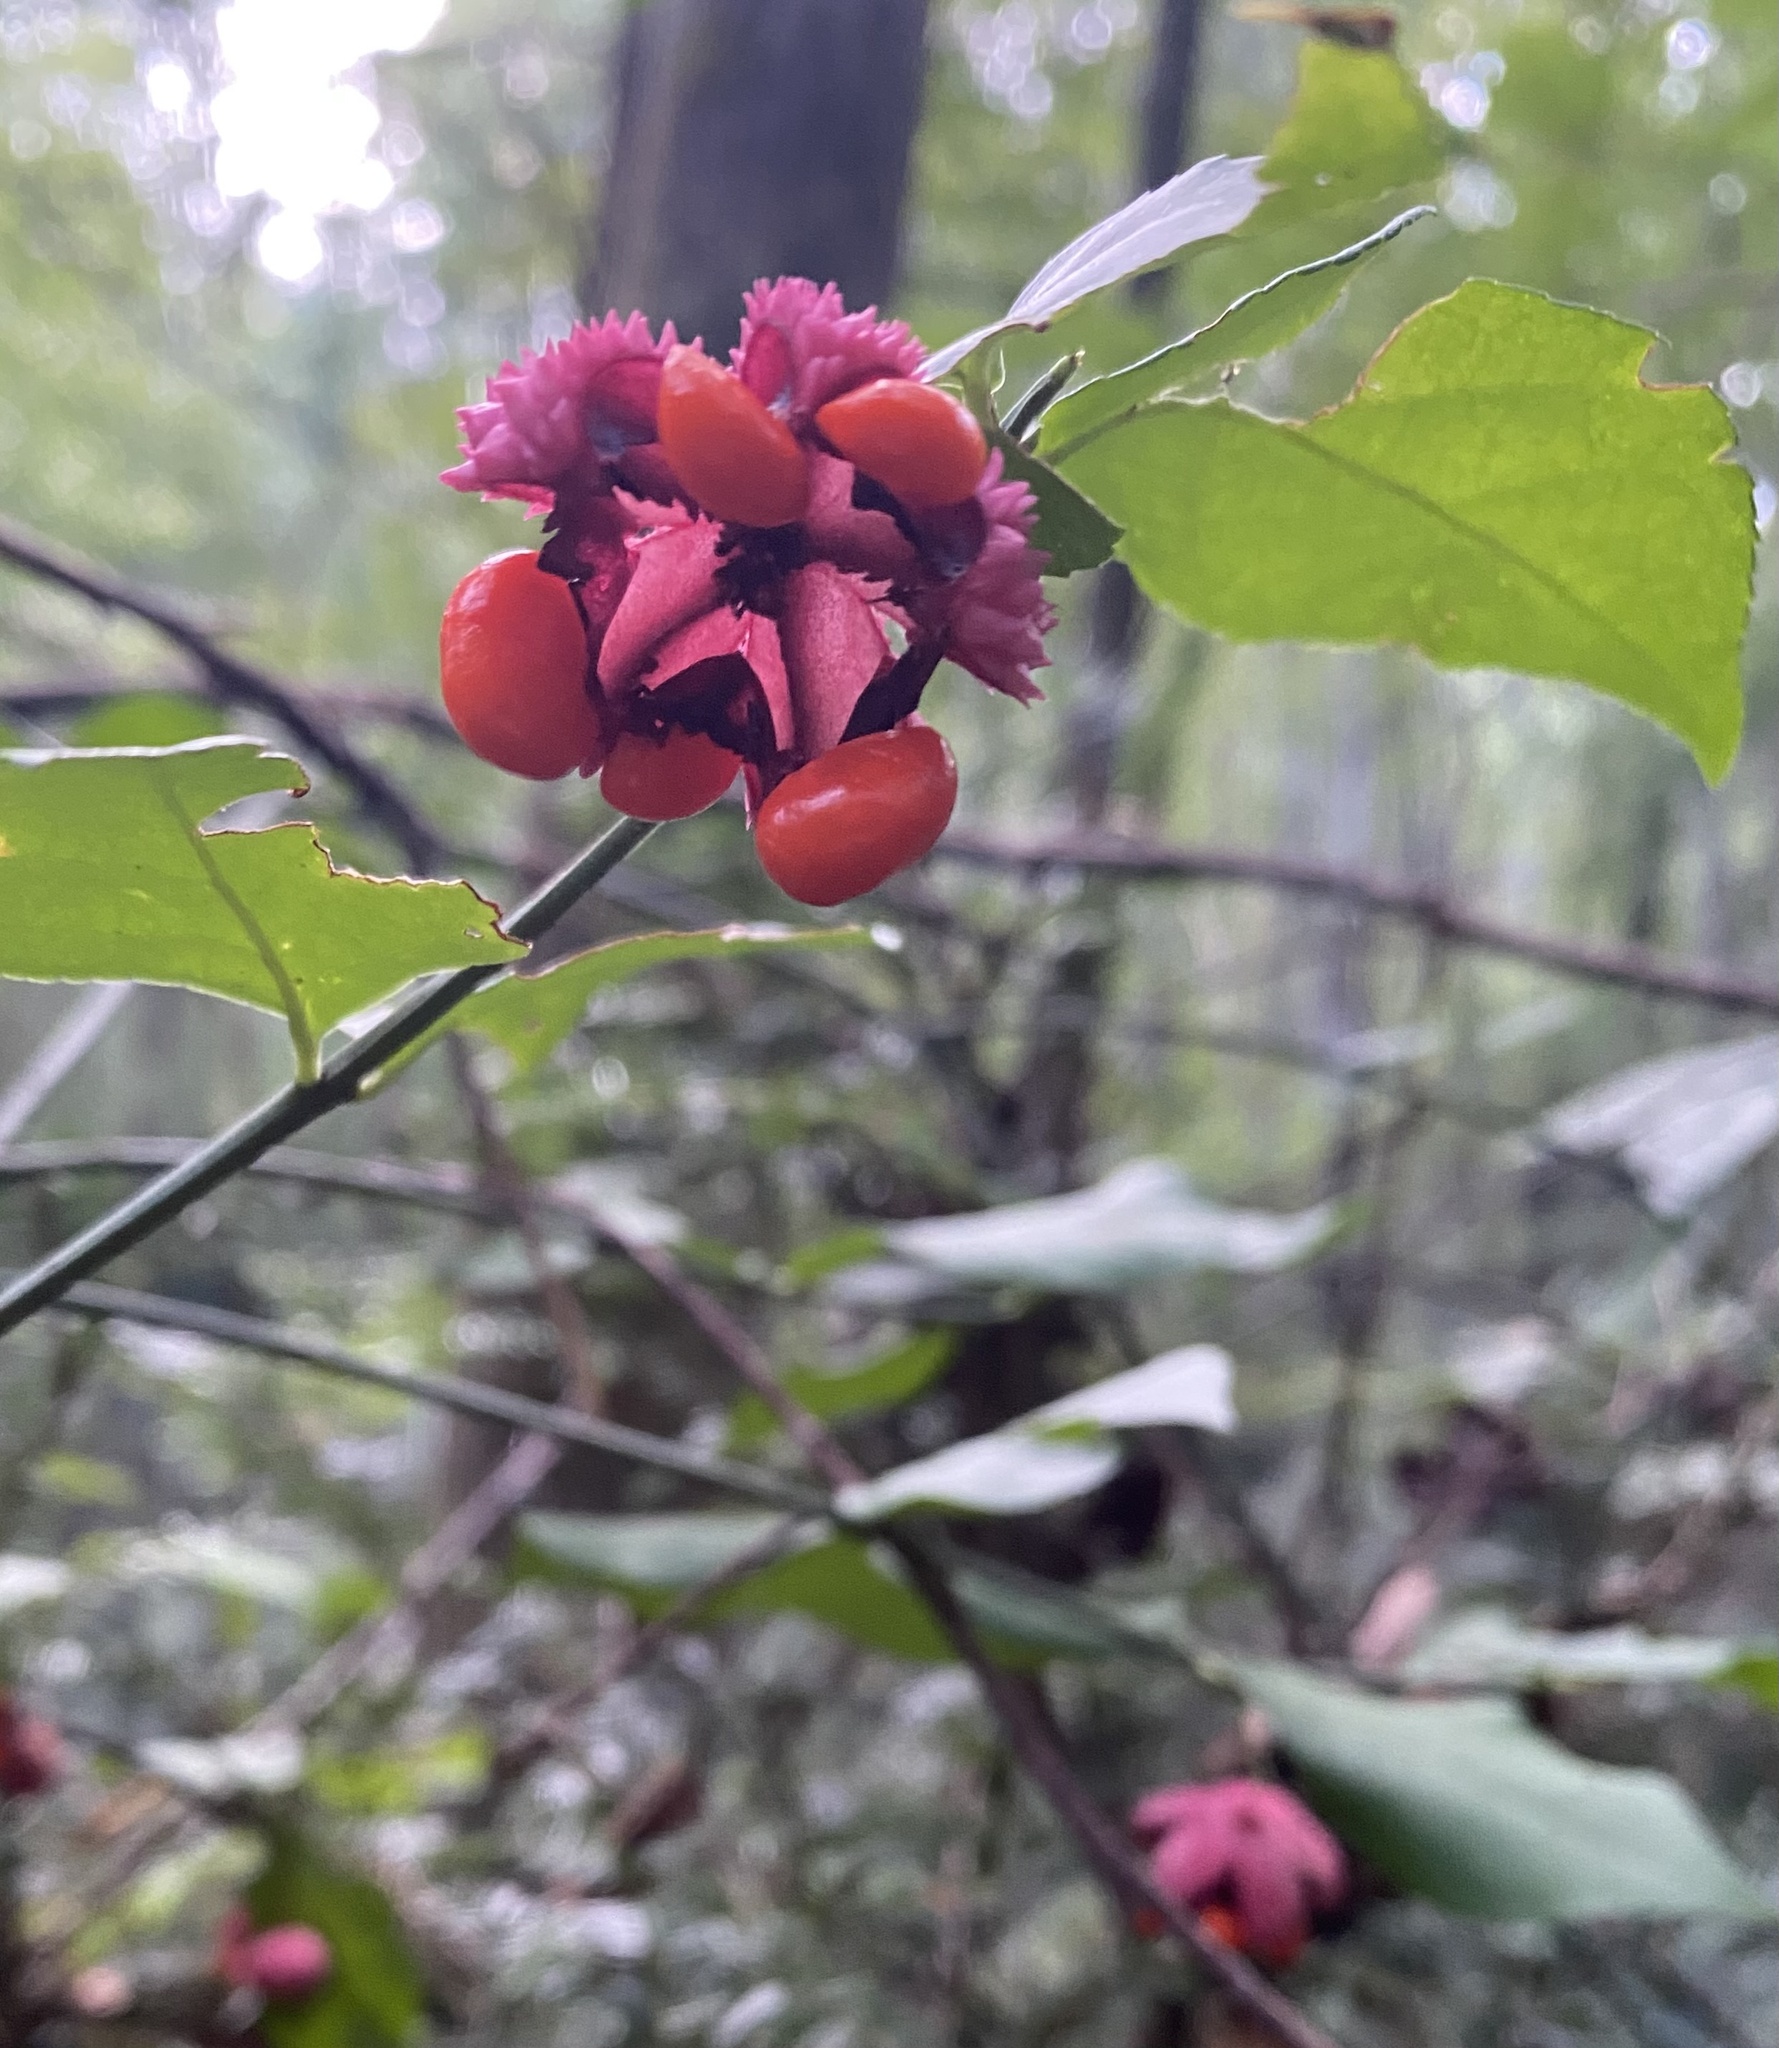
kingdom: Plantae
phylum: Tracheophyta
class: Magnoliopsida
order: Celastrales
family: Celastraceae
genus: Euonymus
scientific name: Euonymus americanus
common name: Bursting-heart
